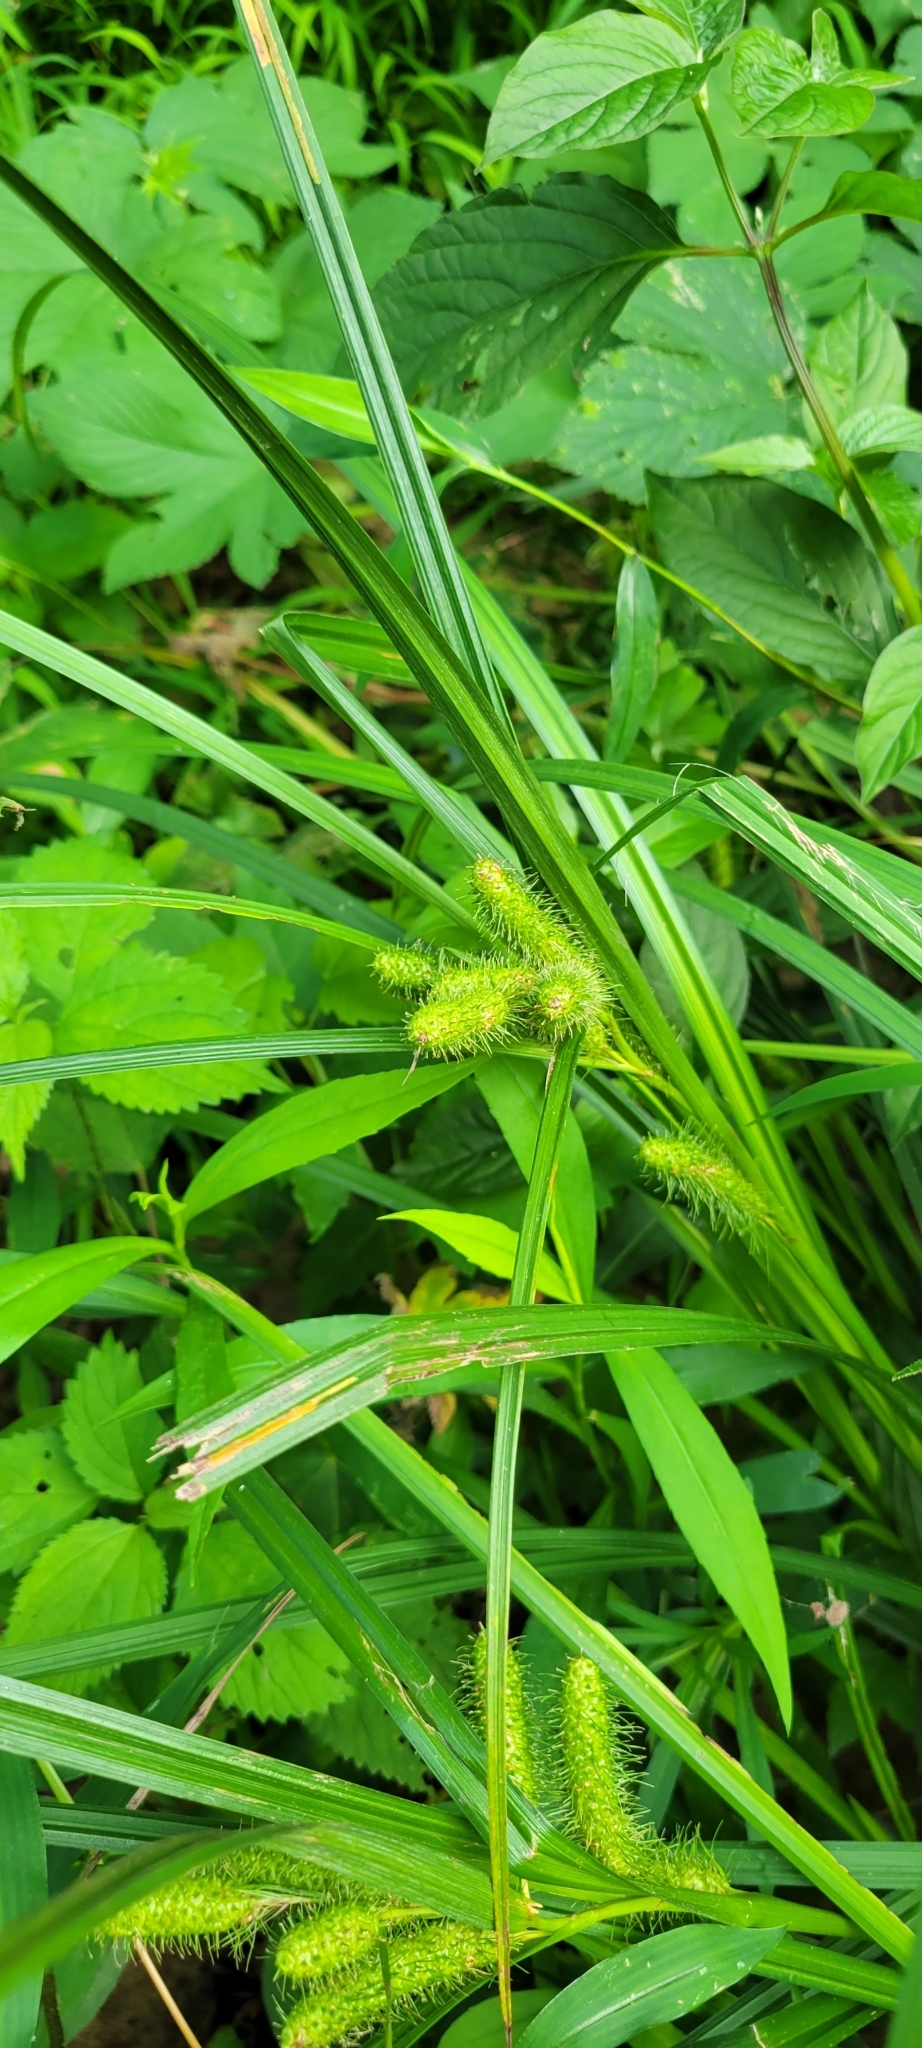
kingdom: Plantae
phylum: Tracheophyta
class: Liliopsida
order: Poales
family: Cyperaceae
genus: Carex
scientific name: Carex frankii
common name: Frank's sedge
